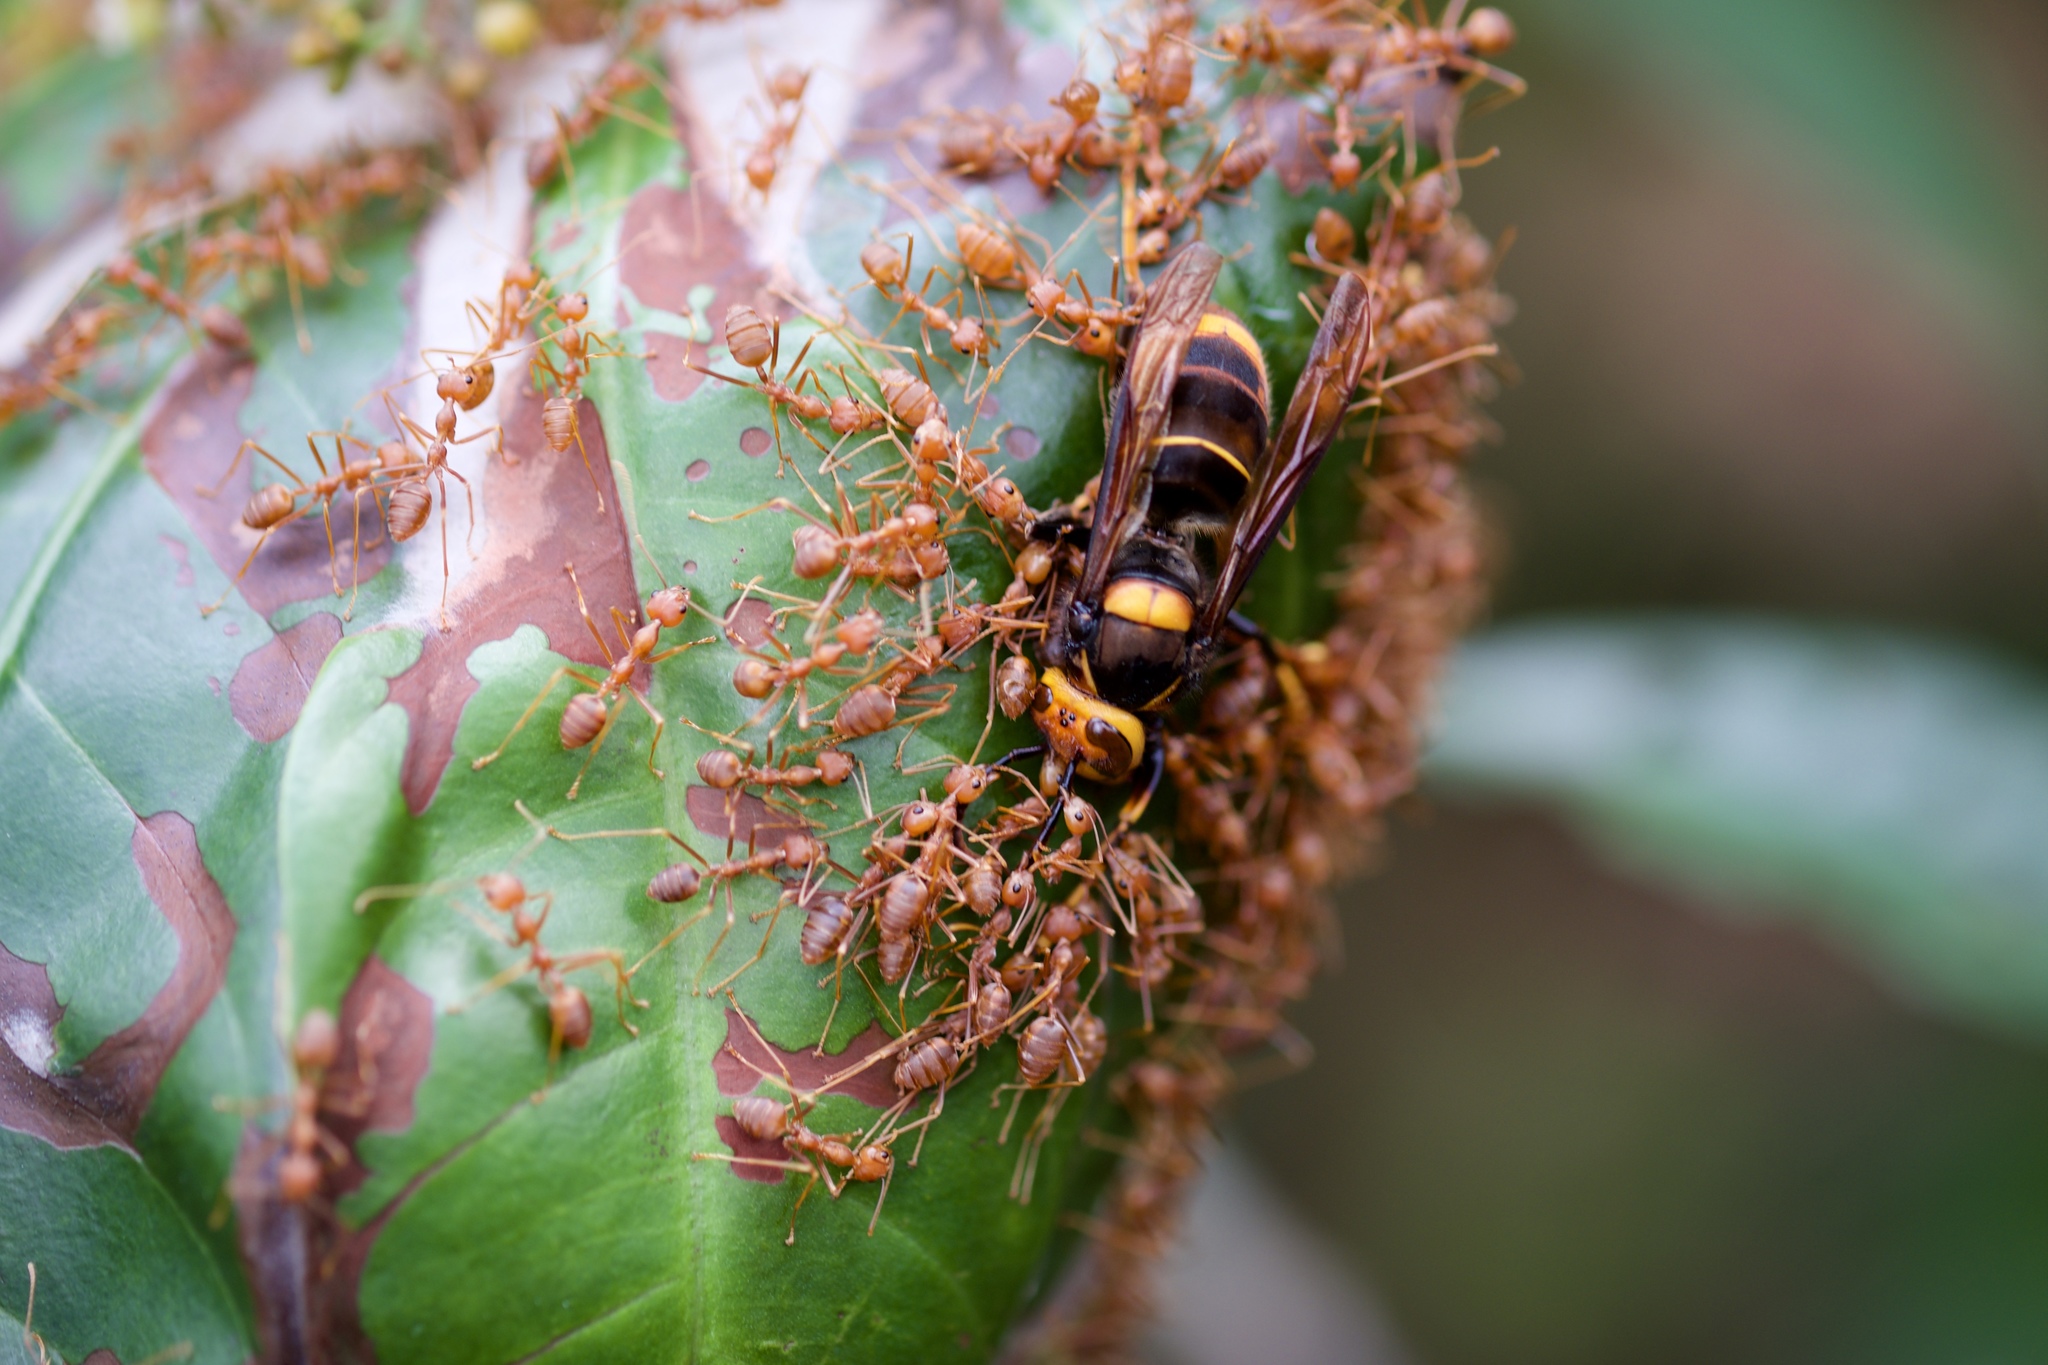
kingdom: Animalia
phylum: Arthropoda
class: Insecta
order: Hymenoptera
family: Vespidae
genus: Vespa
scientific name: Vespa velutina
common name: Asian hornet
